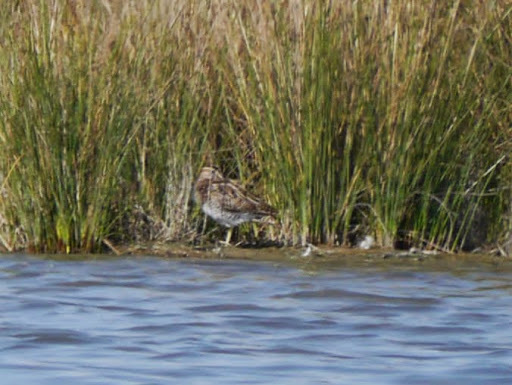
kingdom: Animalia
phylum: Chordata
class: Aves
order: Charadriiformes
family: Scolopacidae
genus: Gallinago
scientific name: Gallinago gallinago
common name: Common snipe
